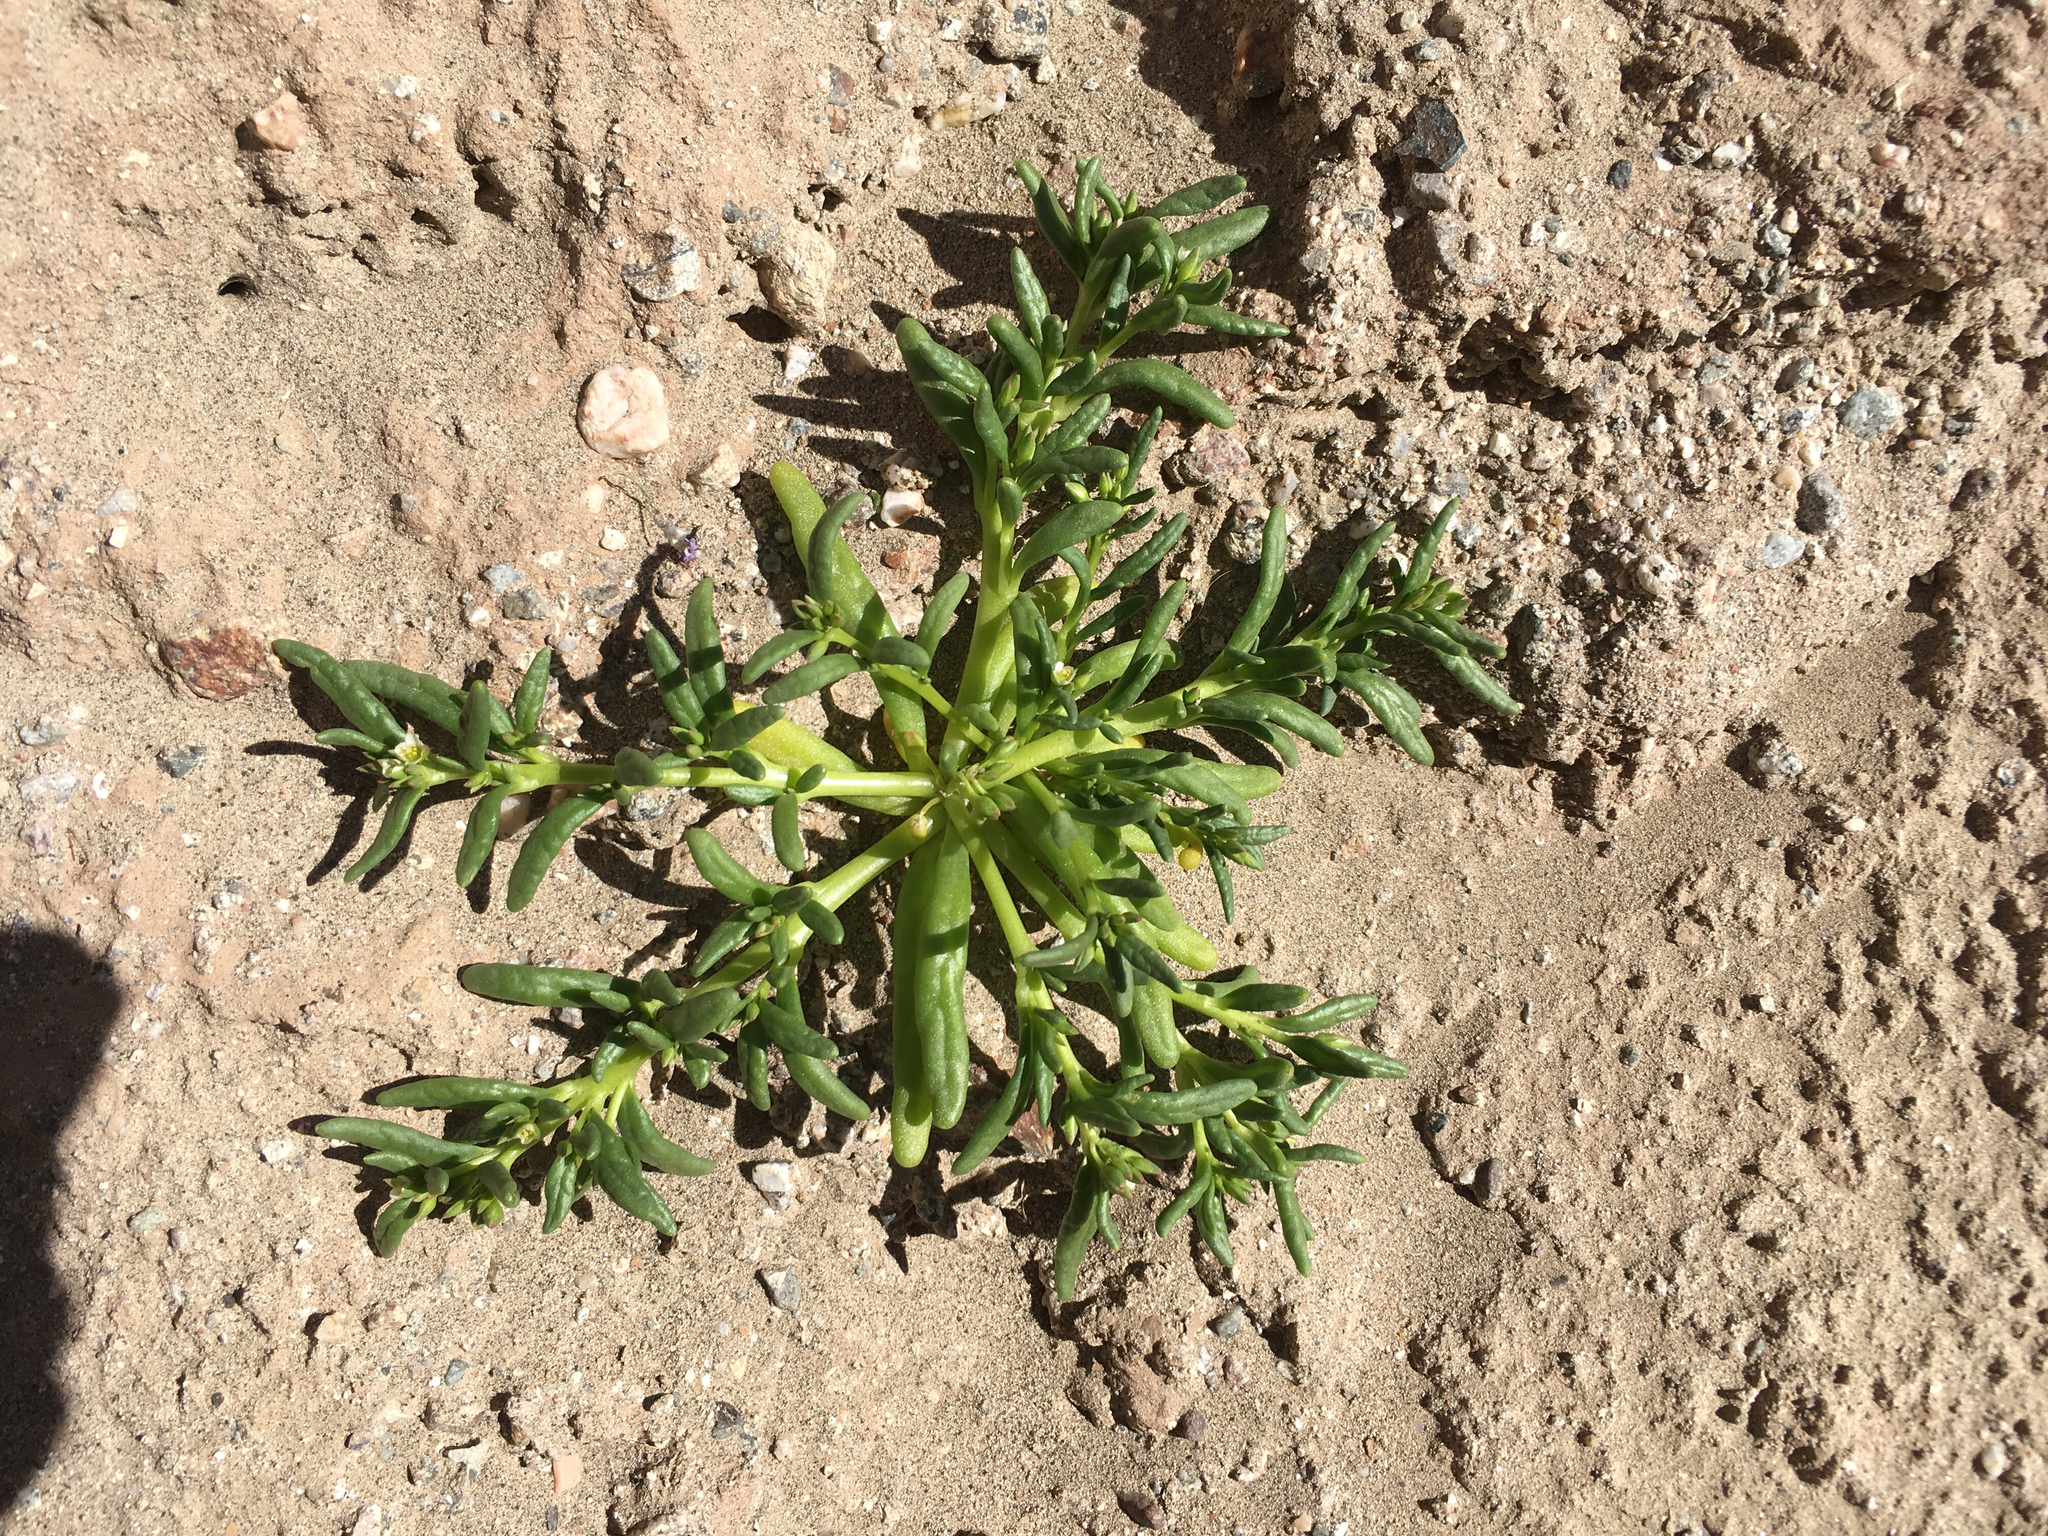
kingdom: Plantae
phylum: Tracheophyta
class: Magnoliopsida
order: Caryophyllales
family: Montiaceae
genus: Thingia
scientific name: Thingia ambigua
